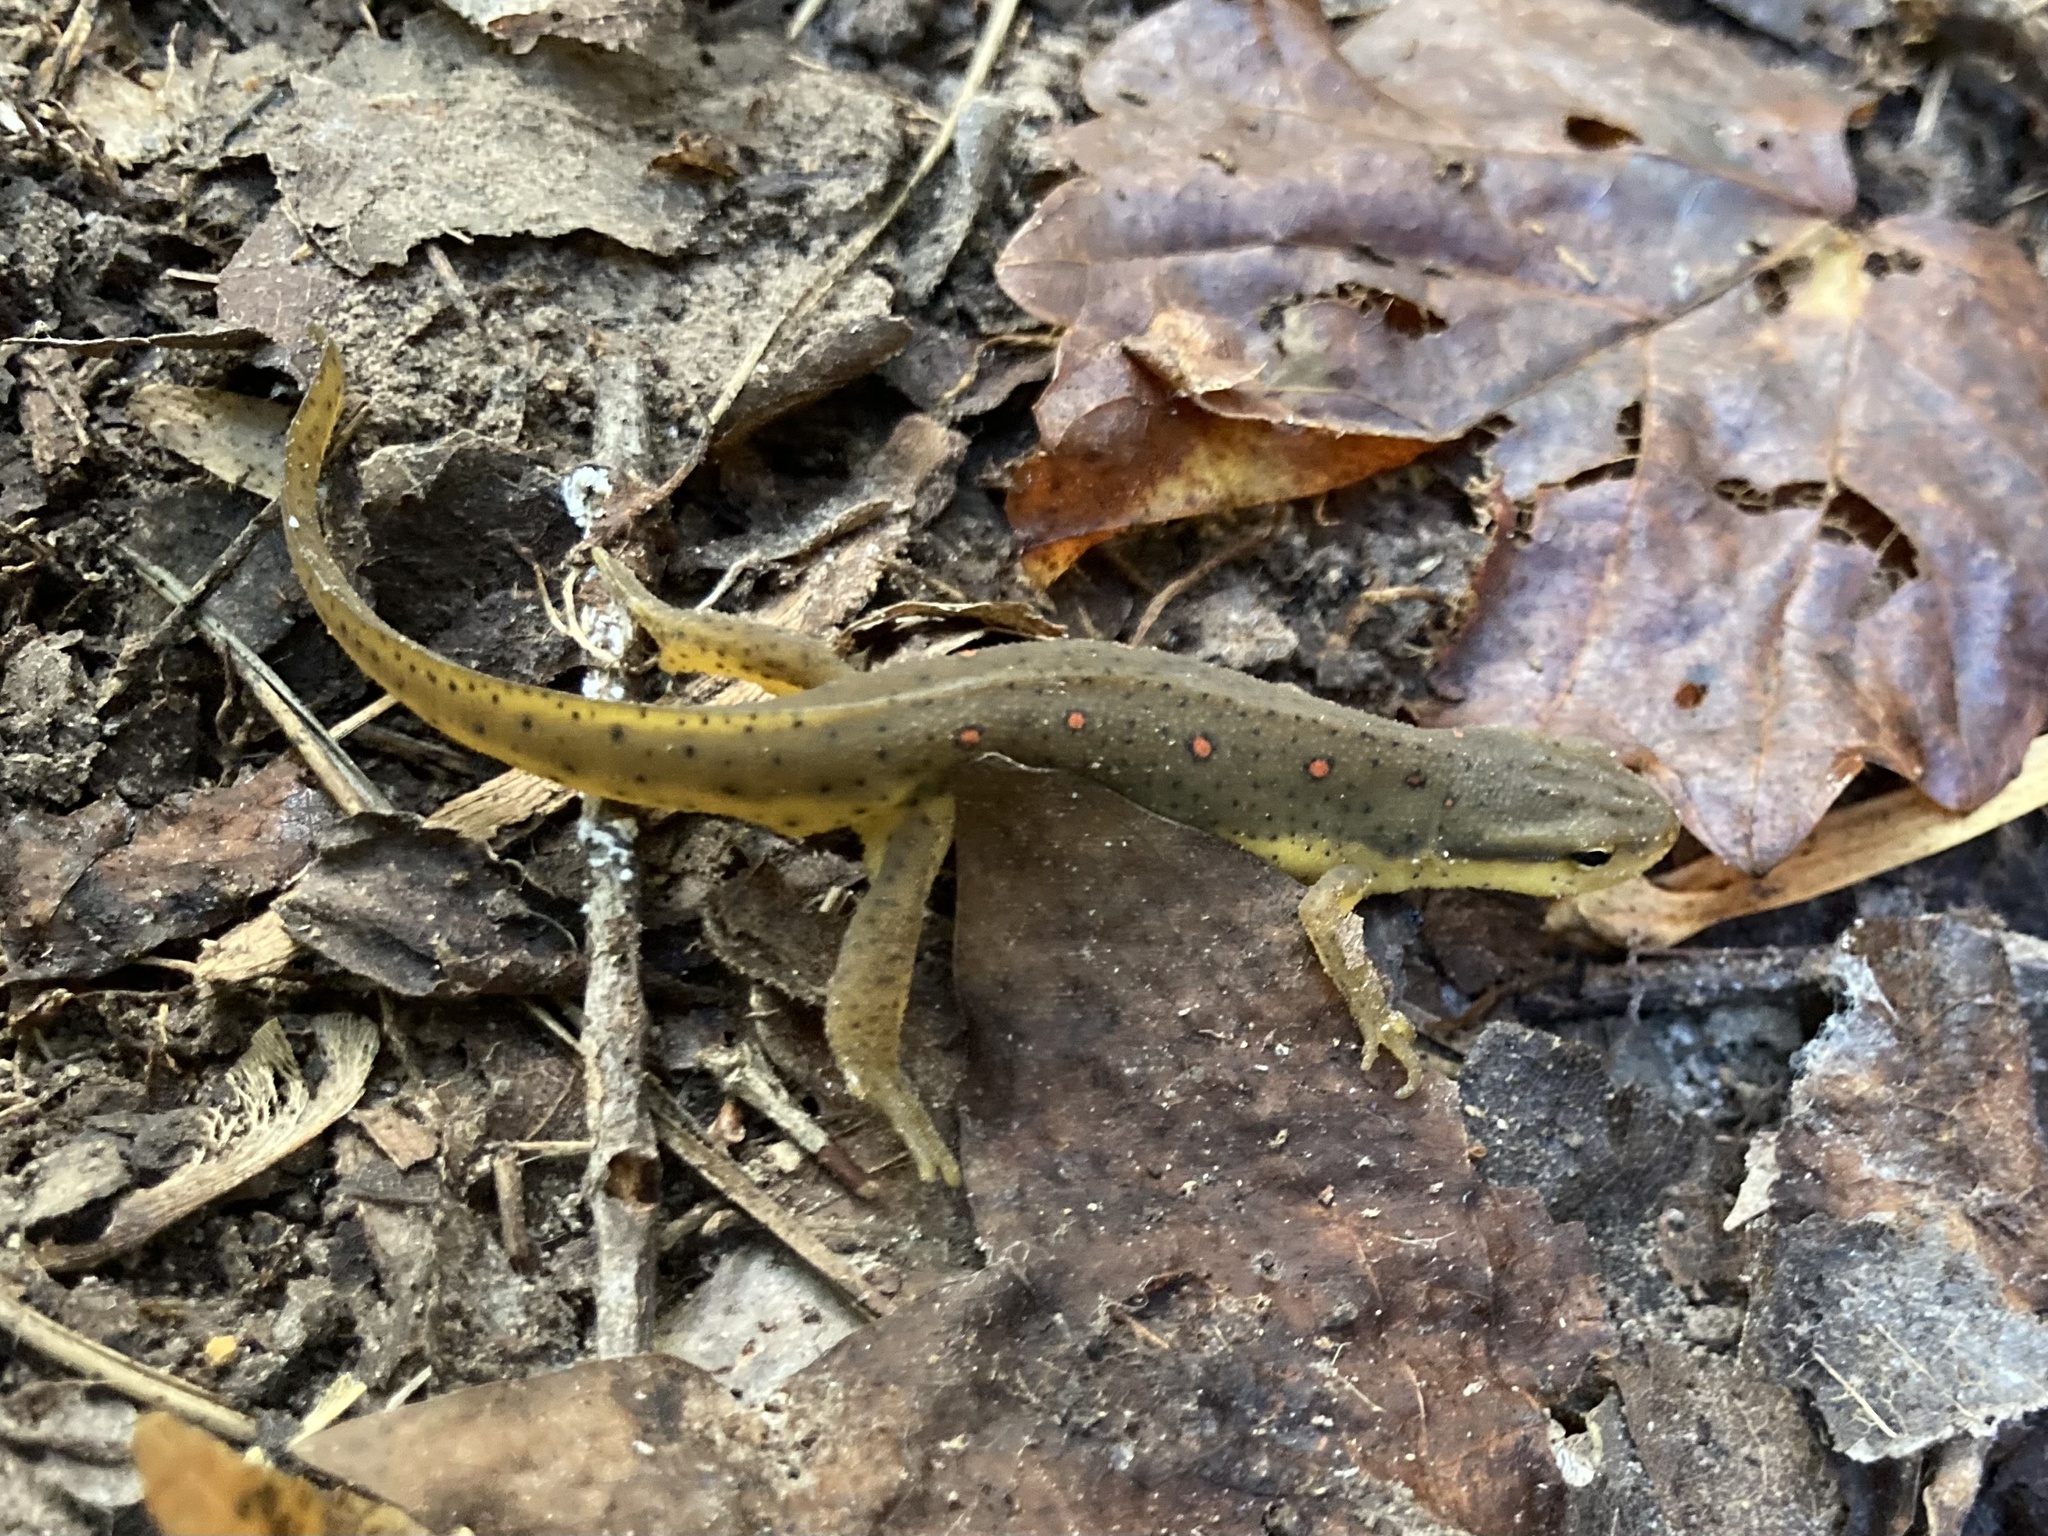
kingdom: Animalia
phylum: Chordata
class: Amphibia
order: Caudata
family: Salamandridae
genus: Notophthalmus
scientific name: Notophthalmus viridescens
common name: Eastern newt
